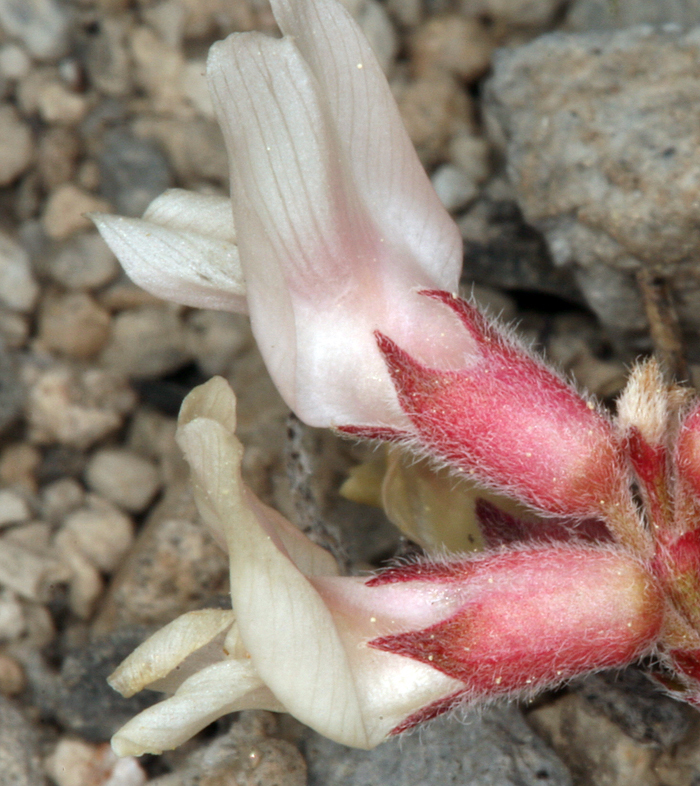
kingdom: Plantae
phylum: Tracheophyta
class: Magnoliopsida
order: Fabales
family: Fabaceae
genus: Astragalus
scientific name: Astragalus monoensis
